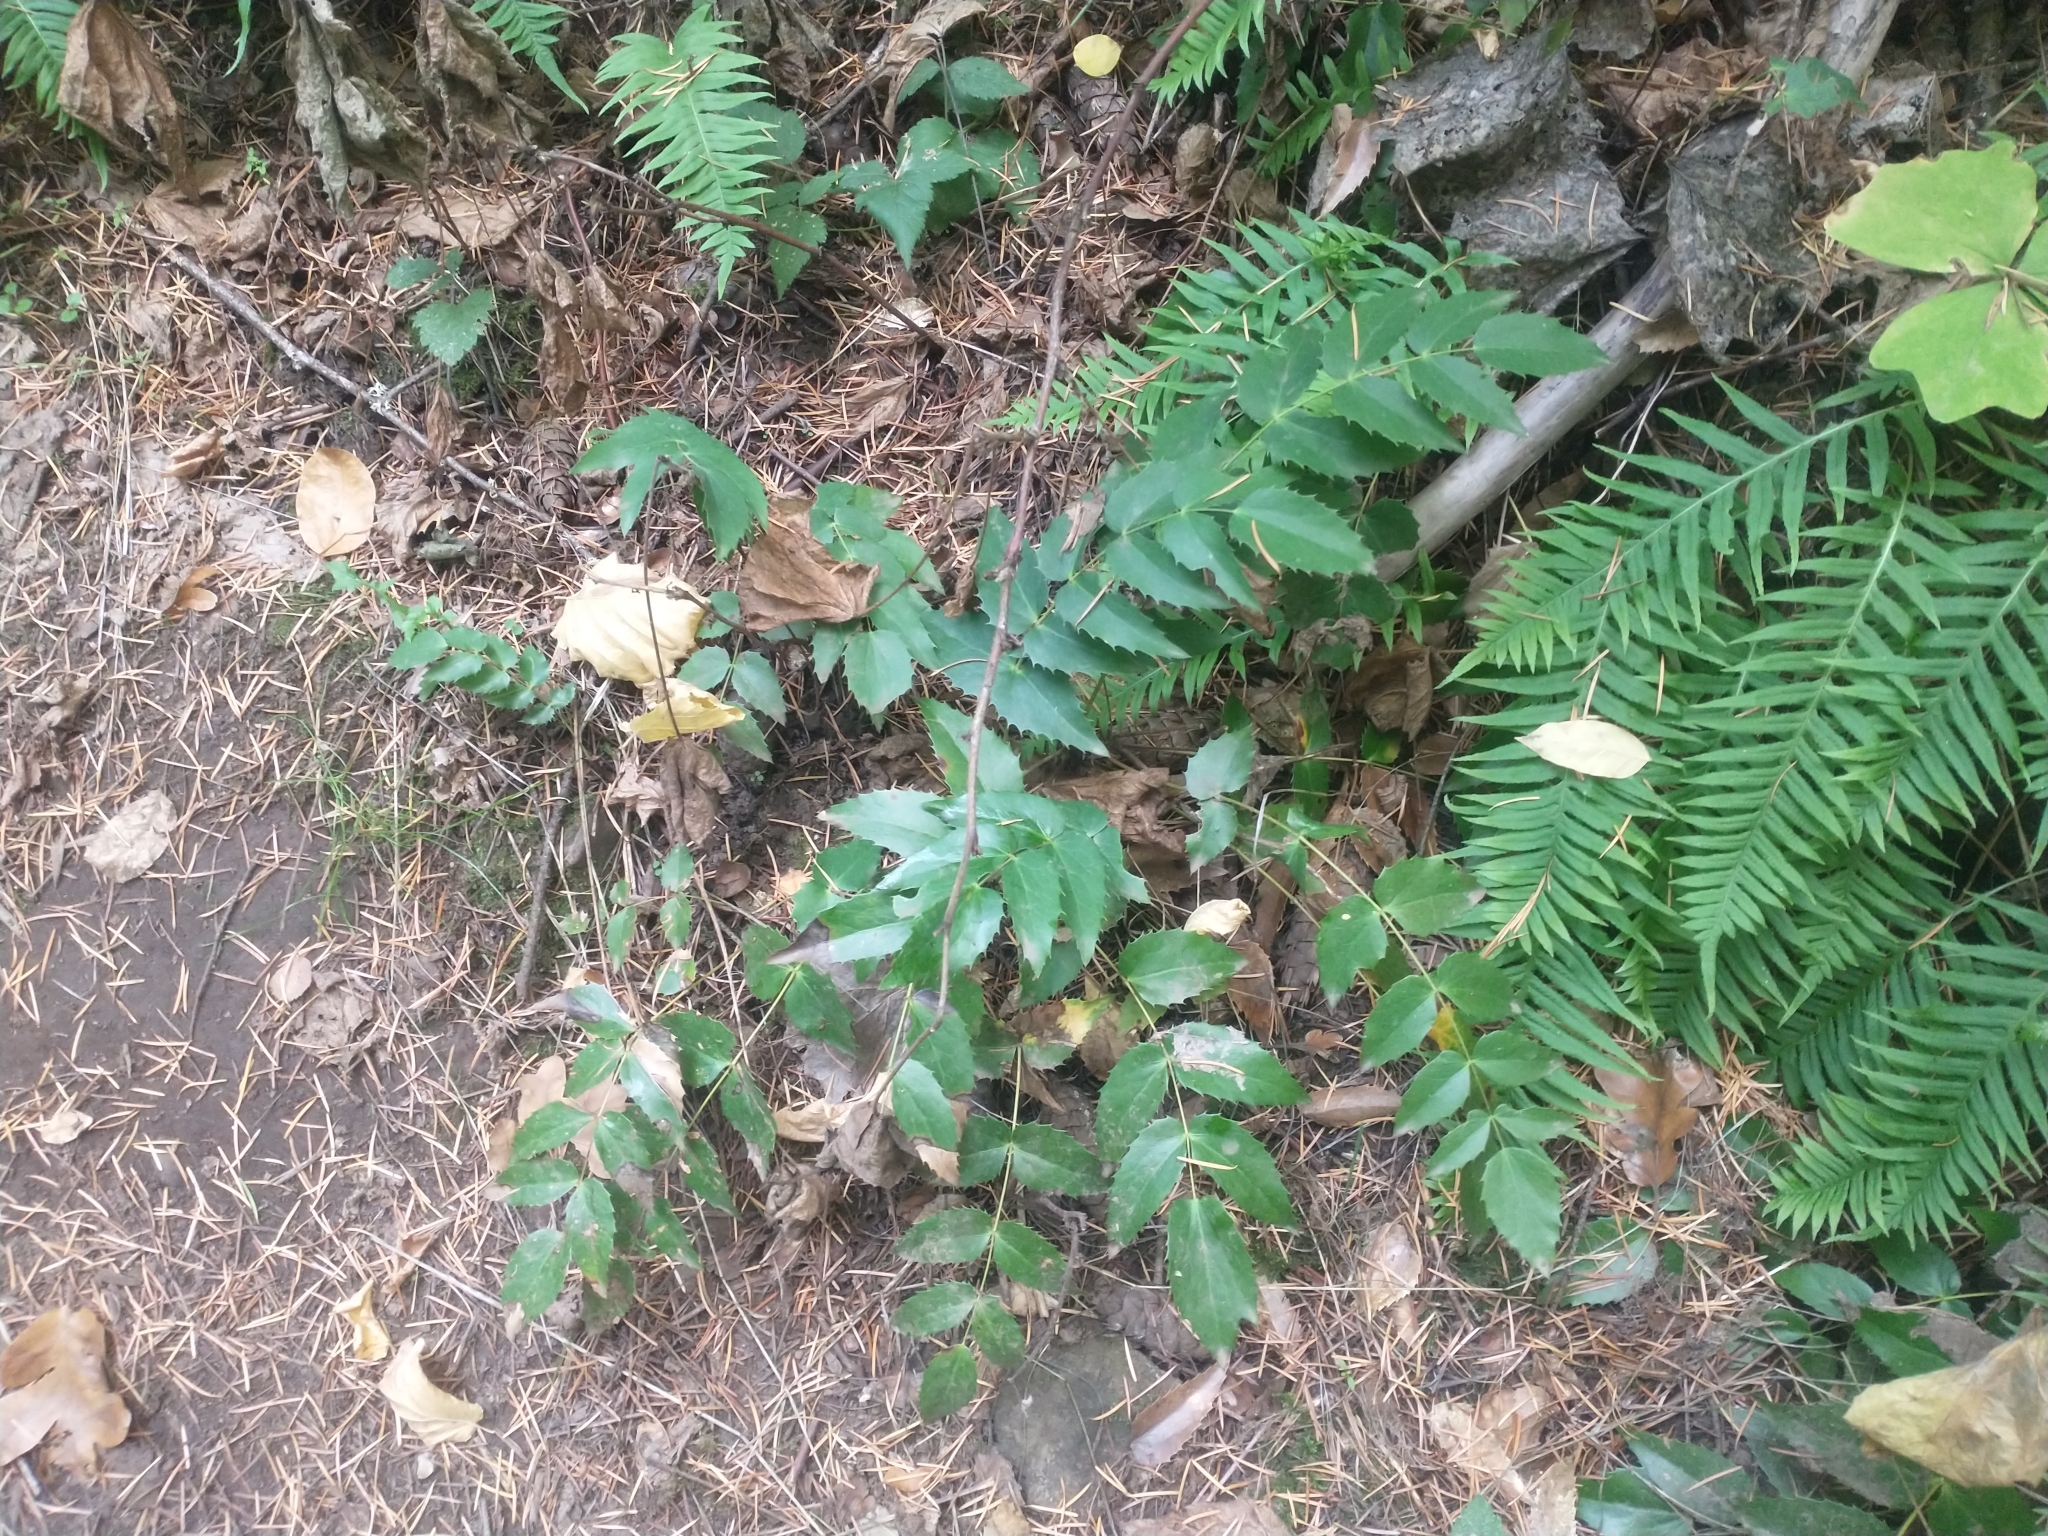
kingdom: Plantae
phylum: Tracheophyta
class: Magnoliopsida
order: Ranunculales
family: Berberidaceae
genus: Mahonia
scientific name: Mahonia nervosa
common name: Cascade oregon-grape
